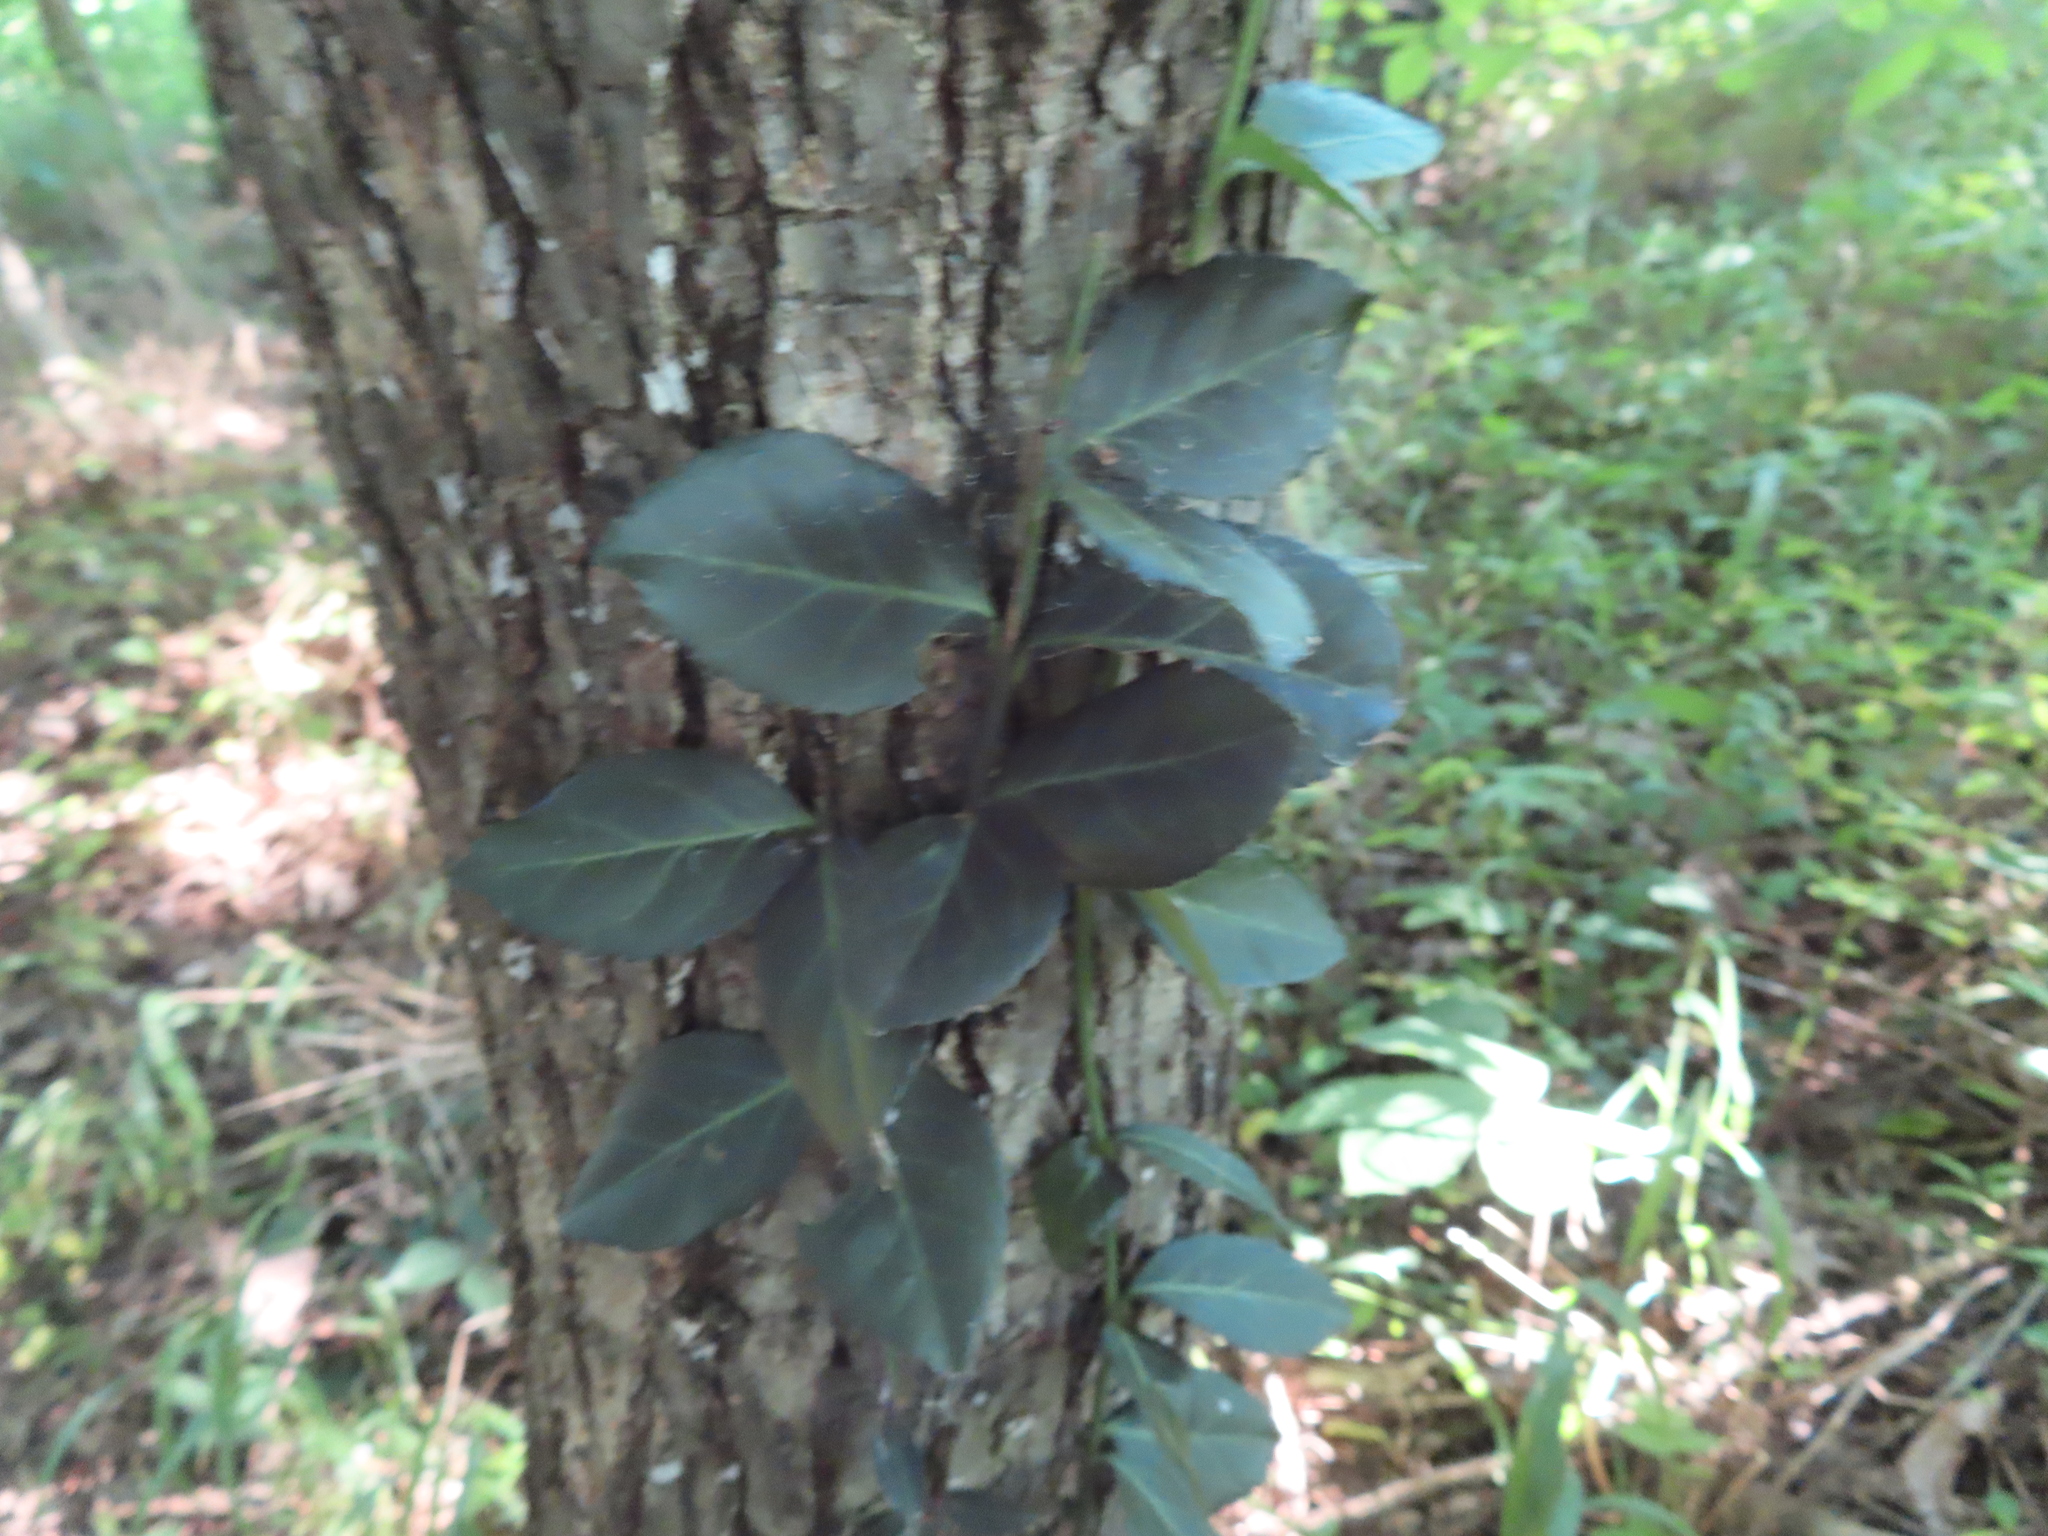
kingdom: Plantae
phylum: Tracheophyta
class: Magnoliopsida
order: Celastrales
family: Celastraceae
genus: Euonymus
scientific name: Euonymus fortunei
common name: Climbing euonymus
